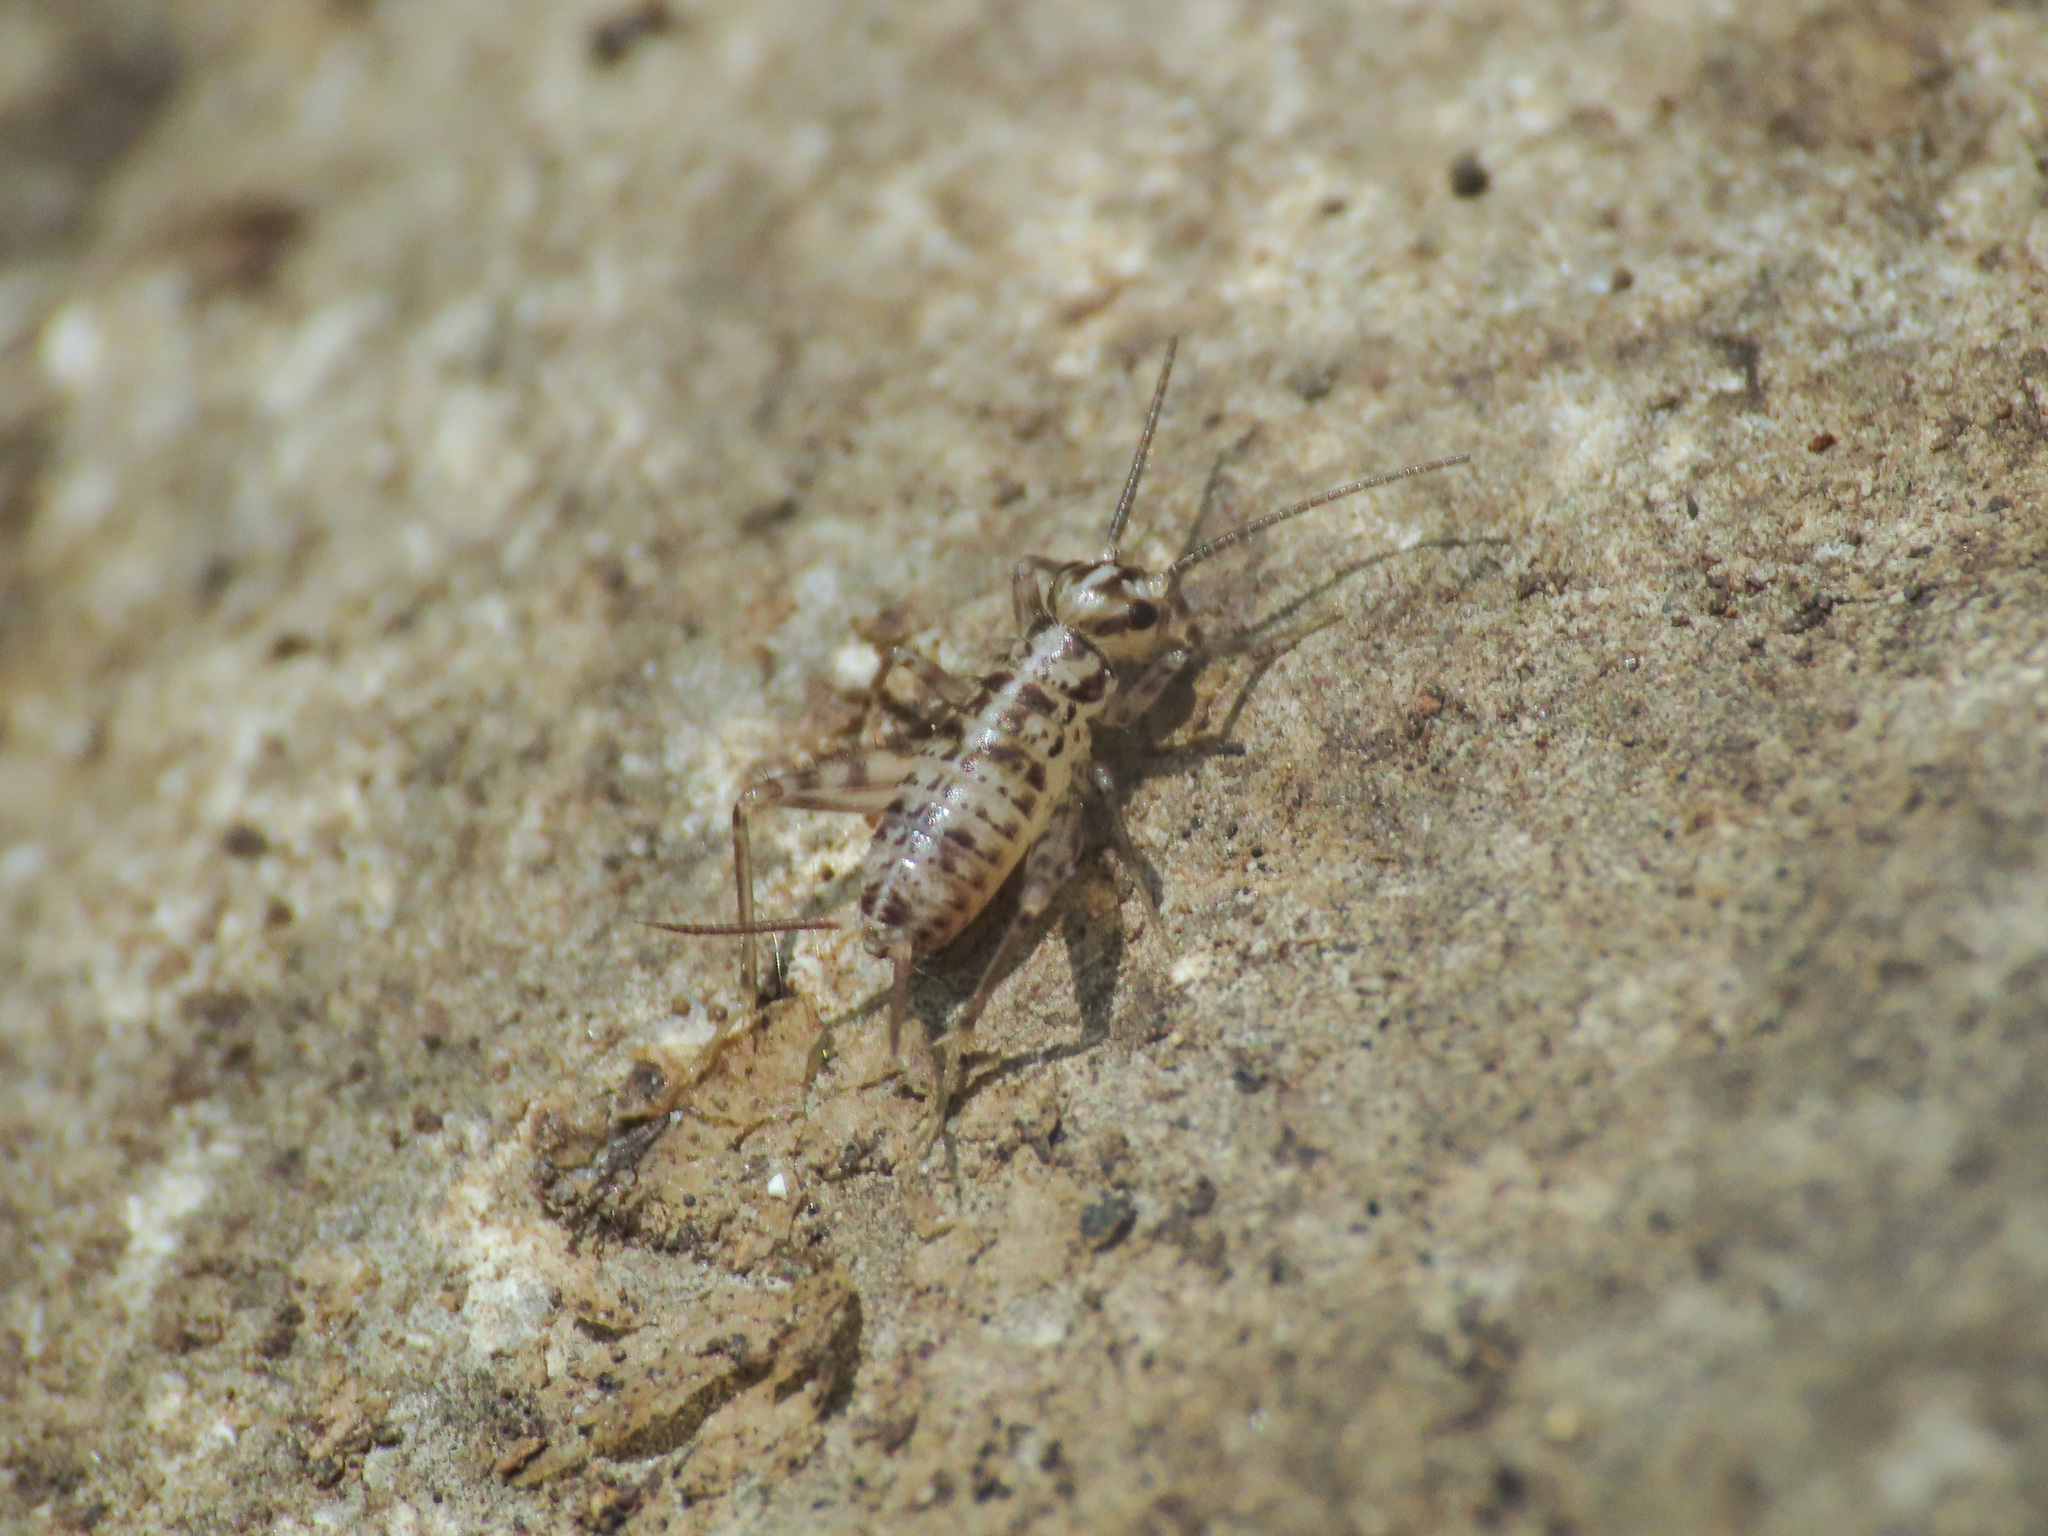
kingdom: Animalia
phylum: Arthropoda
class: Insecta
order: Orthoptera
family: Gryllidae
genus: Gryllomorpha
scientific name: Gryllomorpha dalmatina
